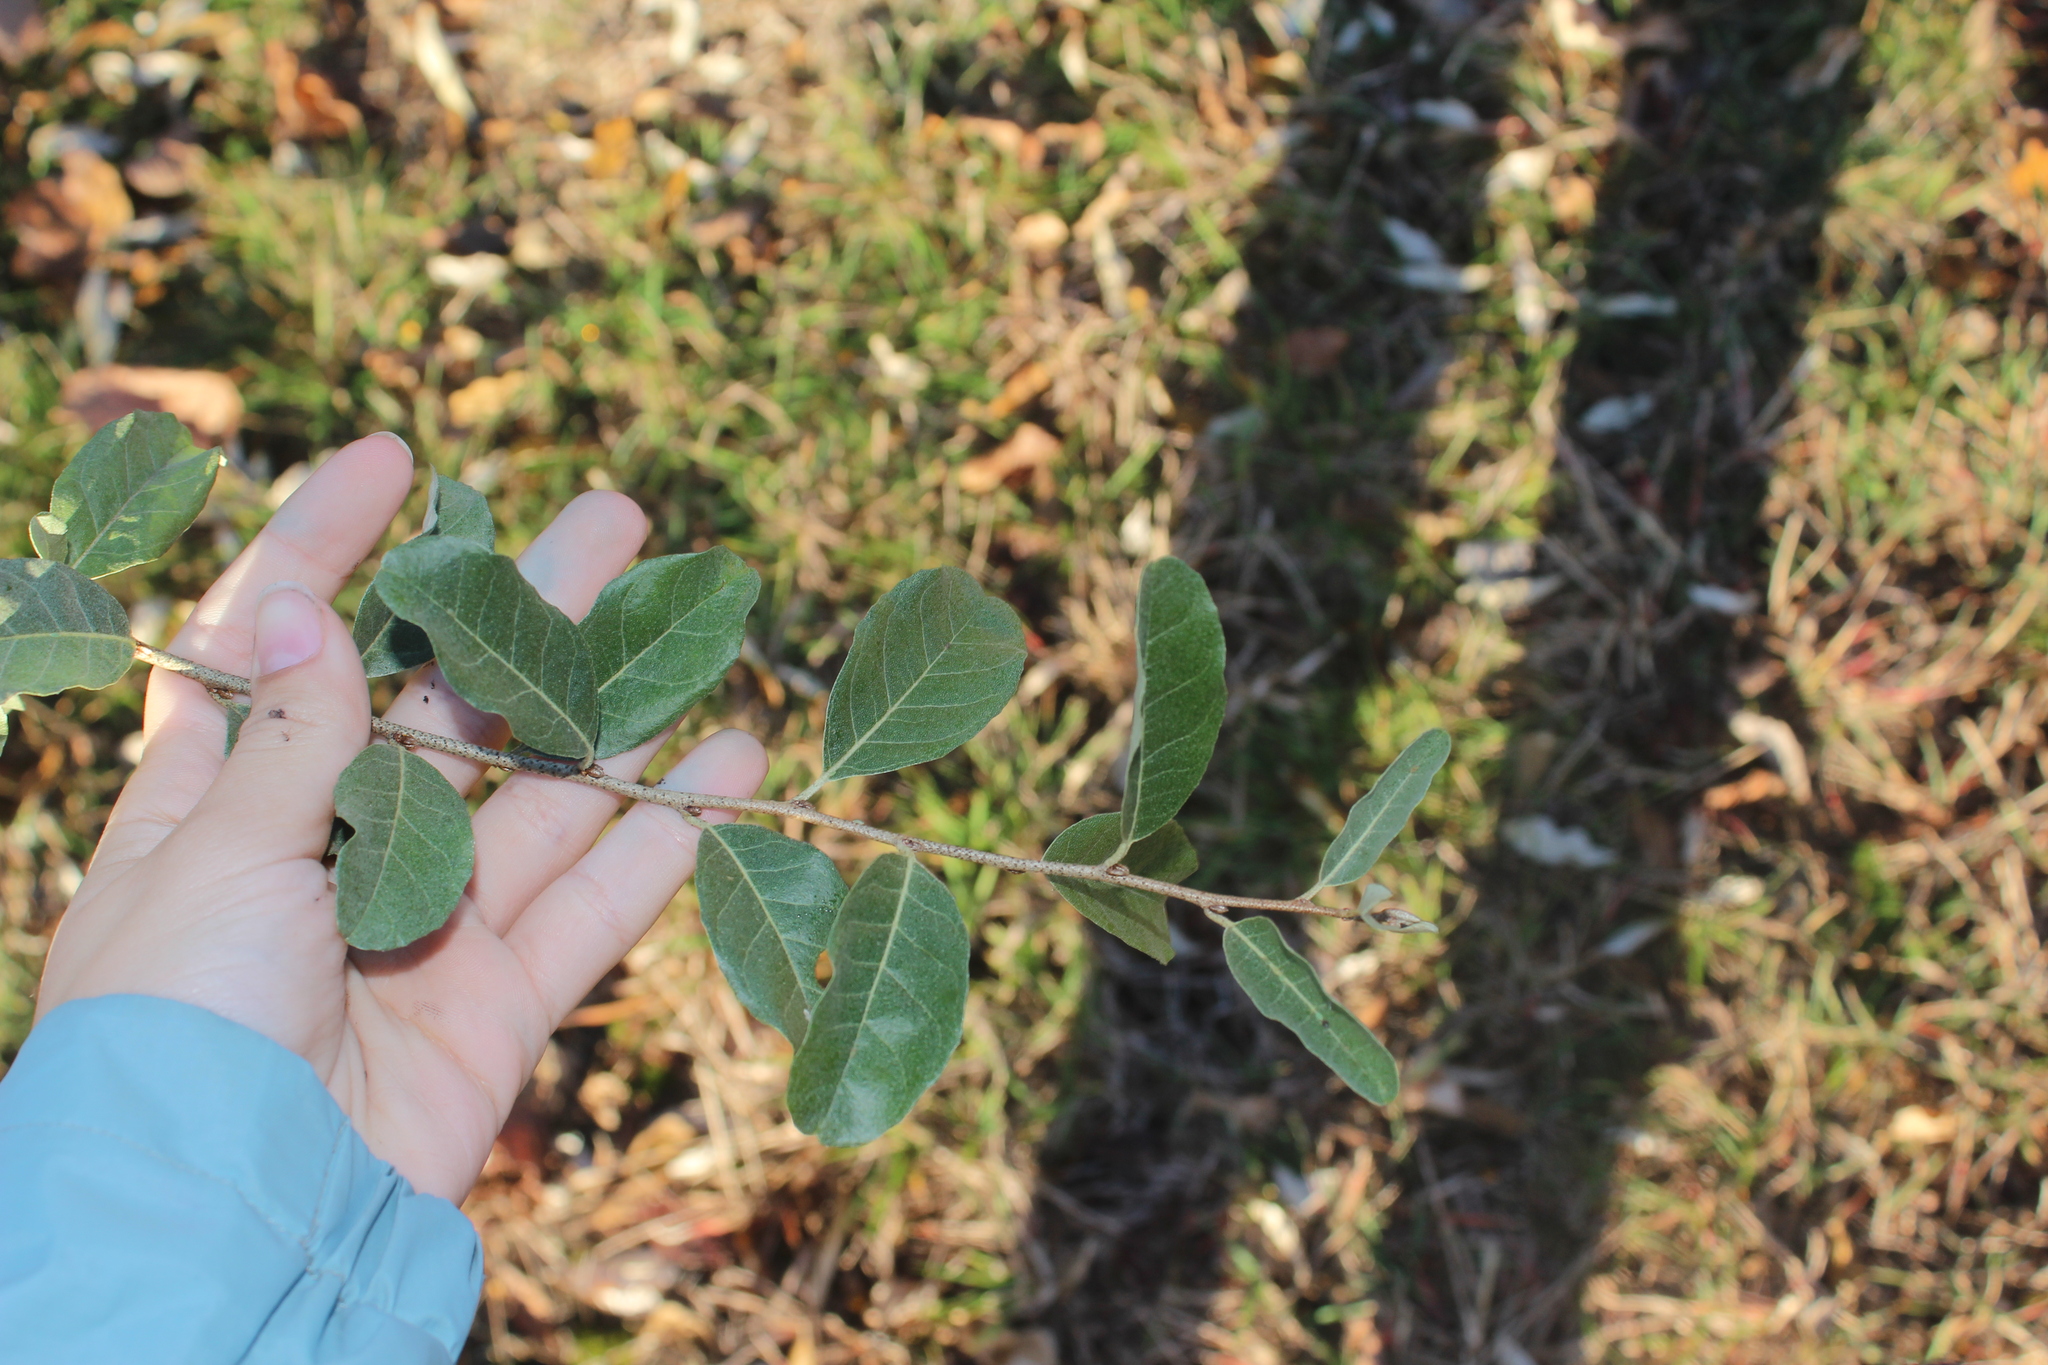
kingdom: Plantae
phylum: Tracheophyta
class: Magnoliopsida
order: Rosales
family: Elaeagnaceae
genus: Elaeagnus
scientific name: Elaeagnus umbellata
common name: Autumn olive
